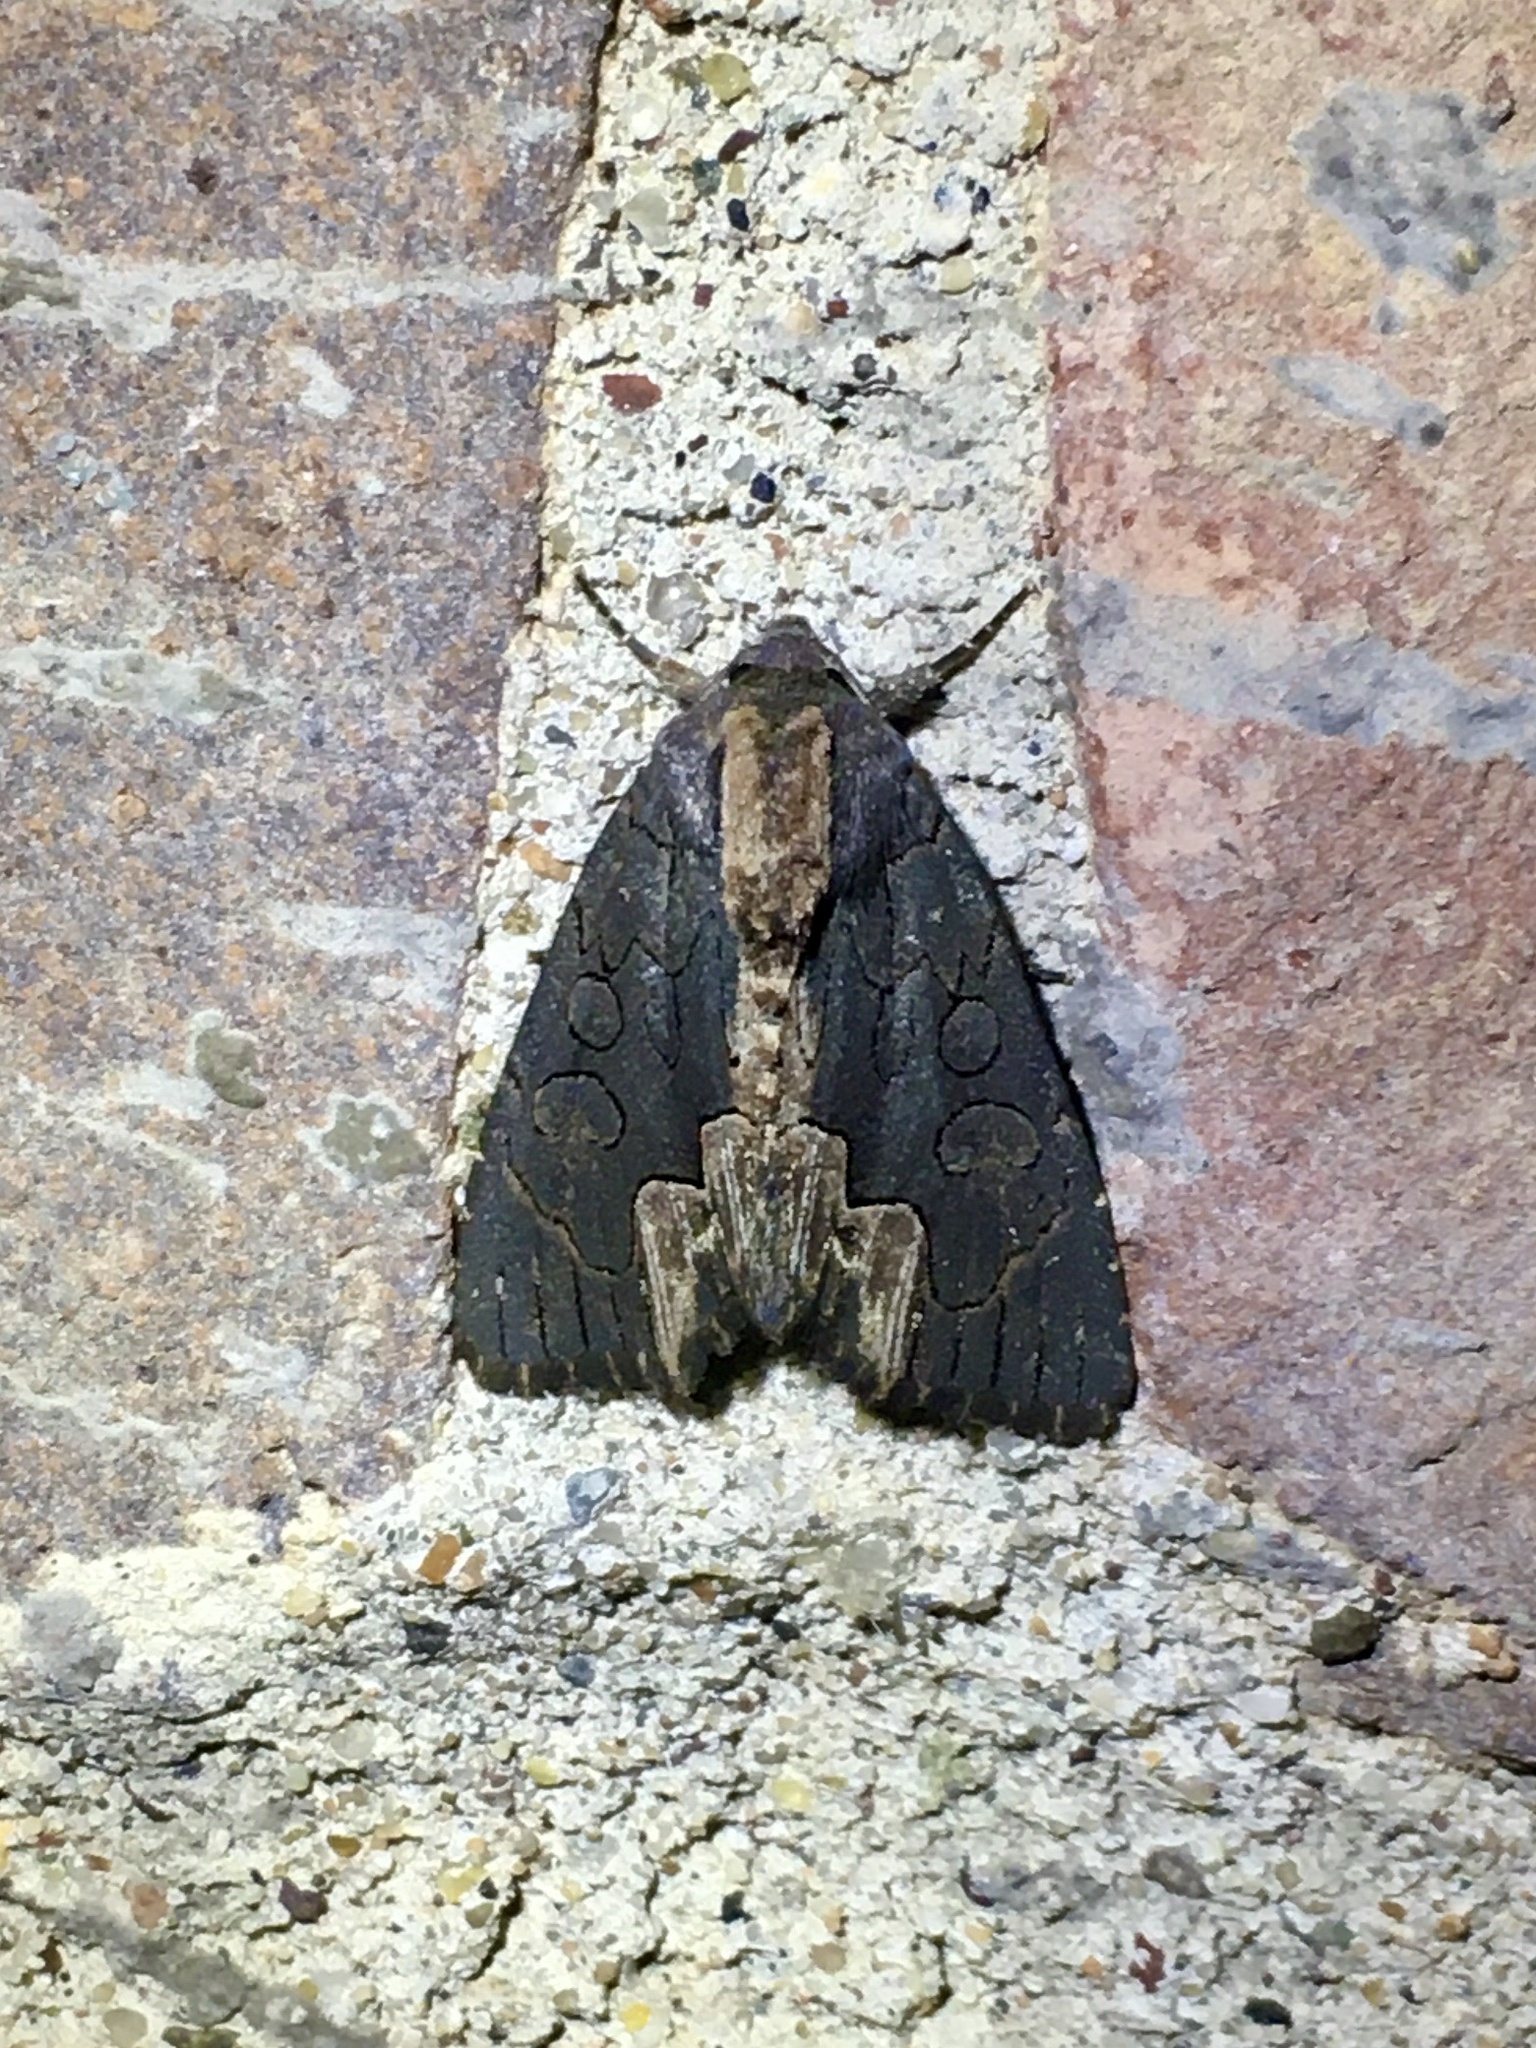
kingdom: Animalia
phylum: Arthropoda
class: Insecta
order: Lepidoptera
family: Noctuidae
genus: Dypterygia
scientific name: Dypterygia rozmani
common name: American bird's-wing
